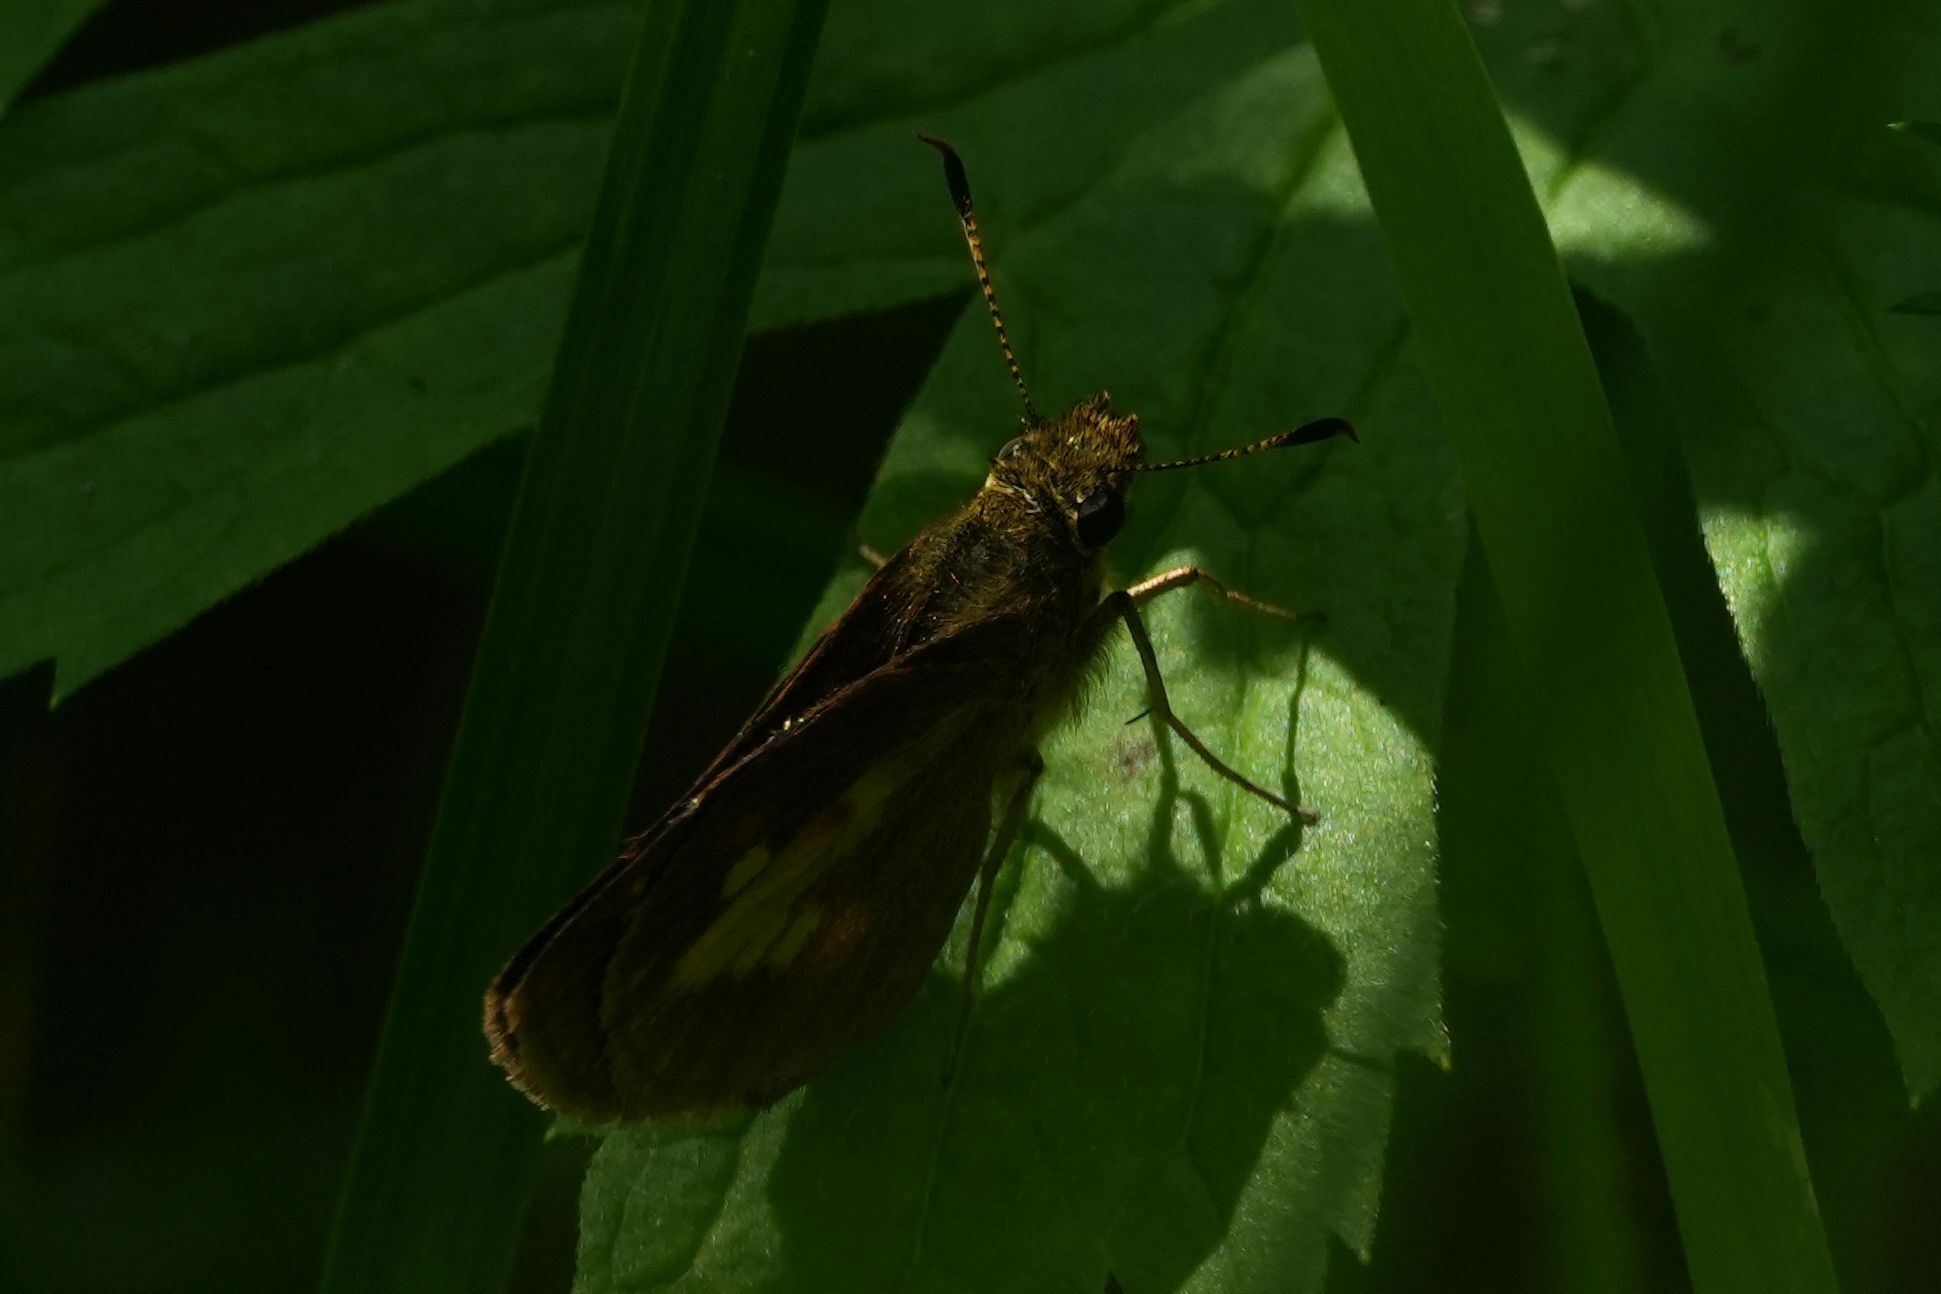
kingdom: Animalia
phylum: Arthropoda
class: Insecta
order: Lepidoptera
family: Hesperiidae
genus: Poanes
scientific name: Poanes massasoit
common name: Mulberrywing
